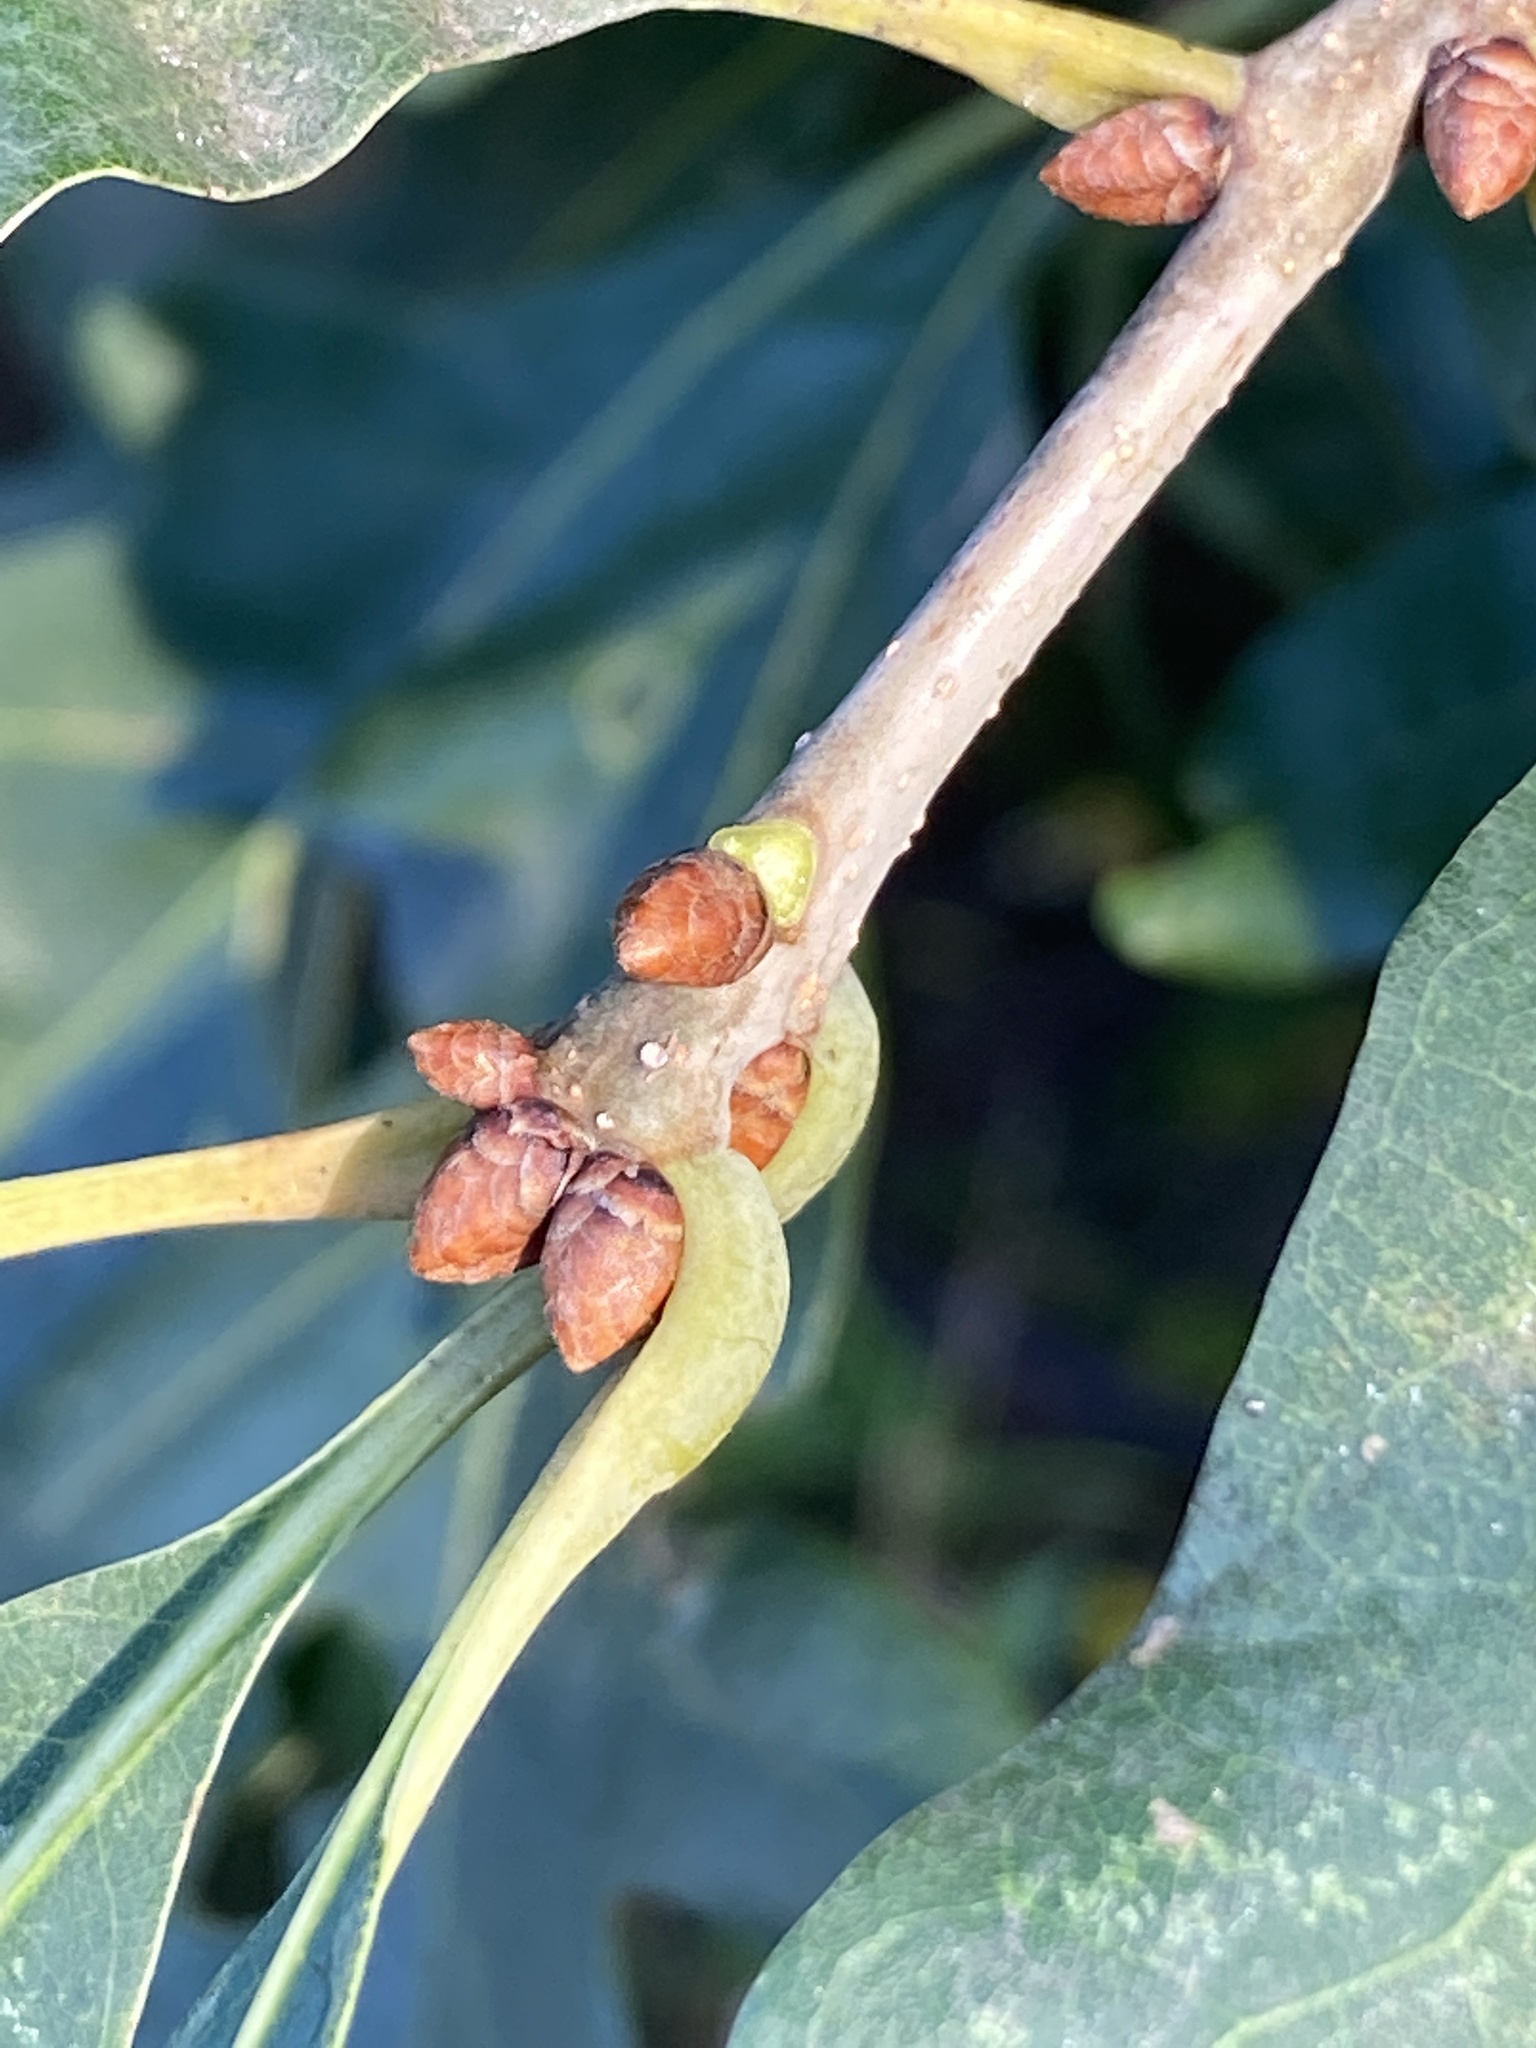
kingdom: Plantae
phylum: Tracheophyta
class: Magnoliopsida
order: Fagales
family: Fagaceae
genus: Quercus
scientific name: Quercus alba
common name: White oak
